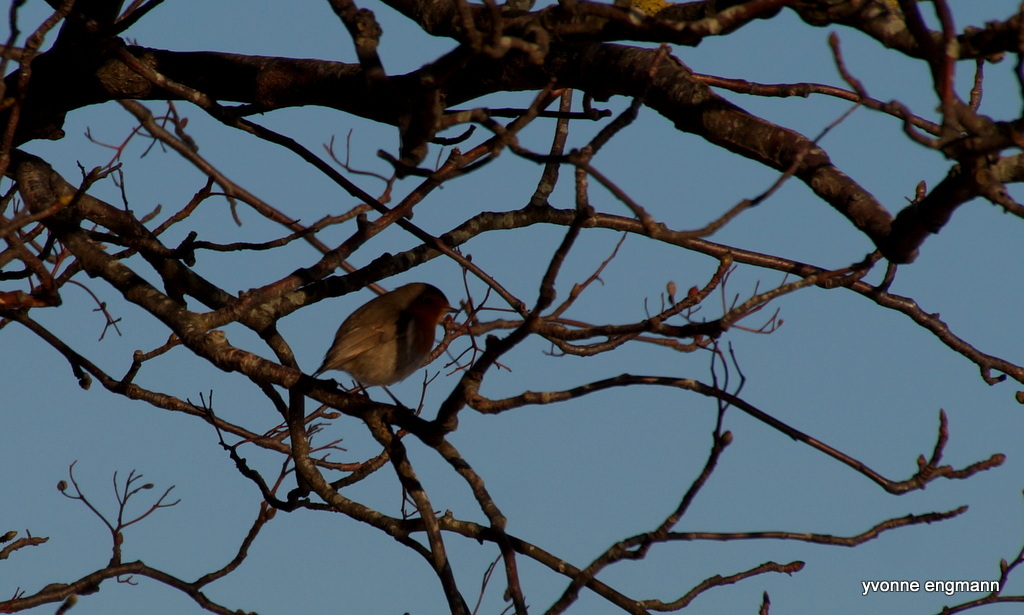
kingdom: Animalia
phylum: Chordata
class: Aves
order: Passeriformes
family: Muscicapidae
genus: Erithacus
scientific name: Erithacus rubecula
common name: European robin
